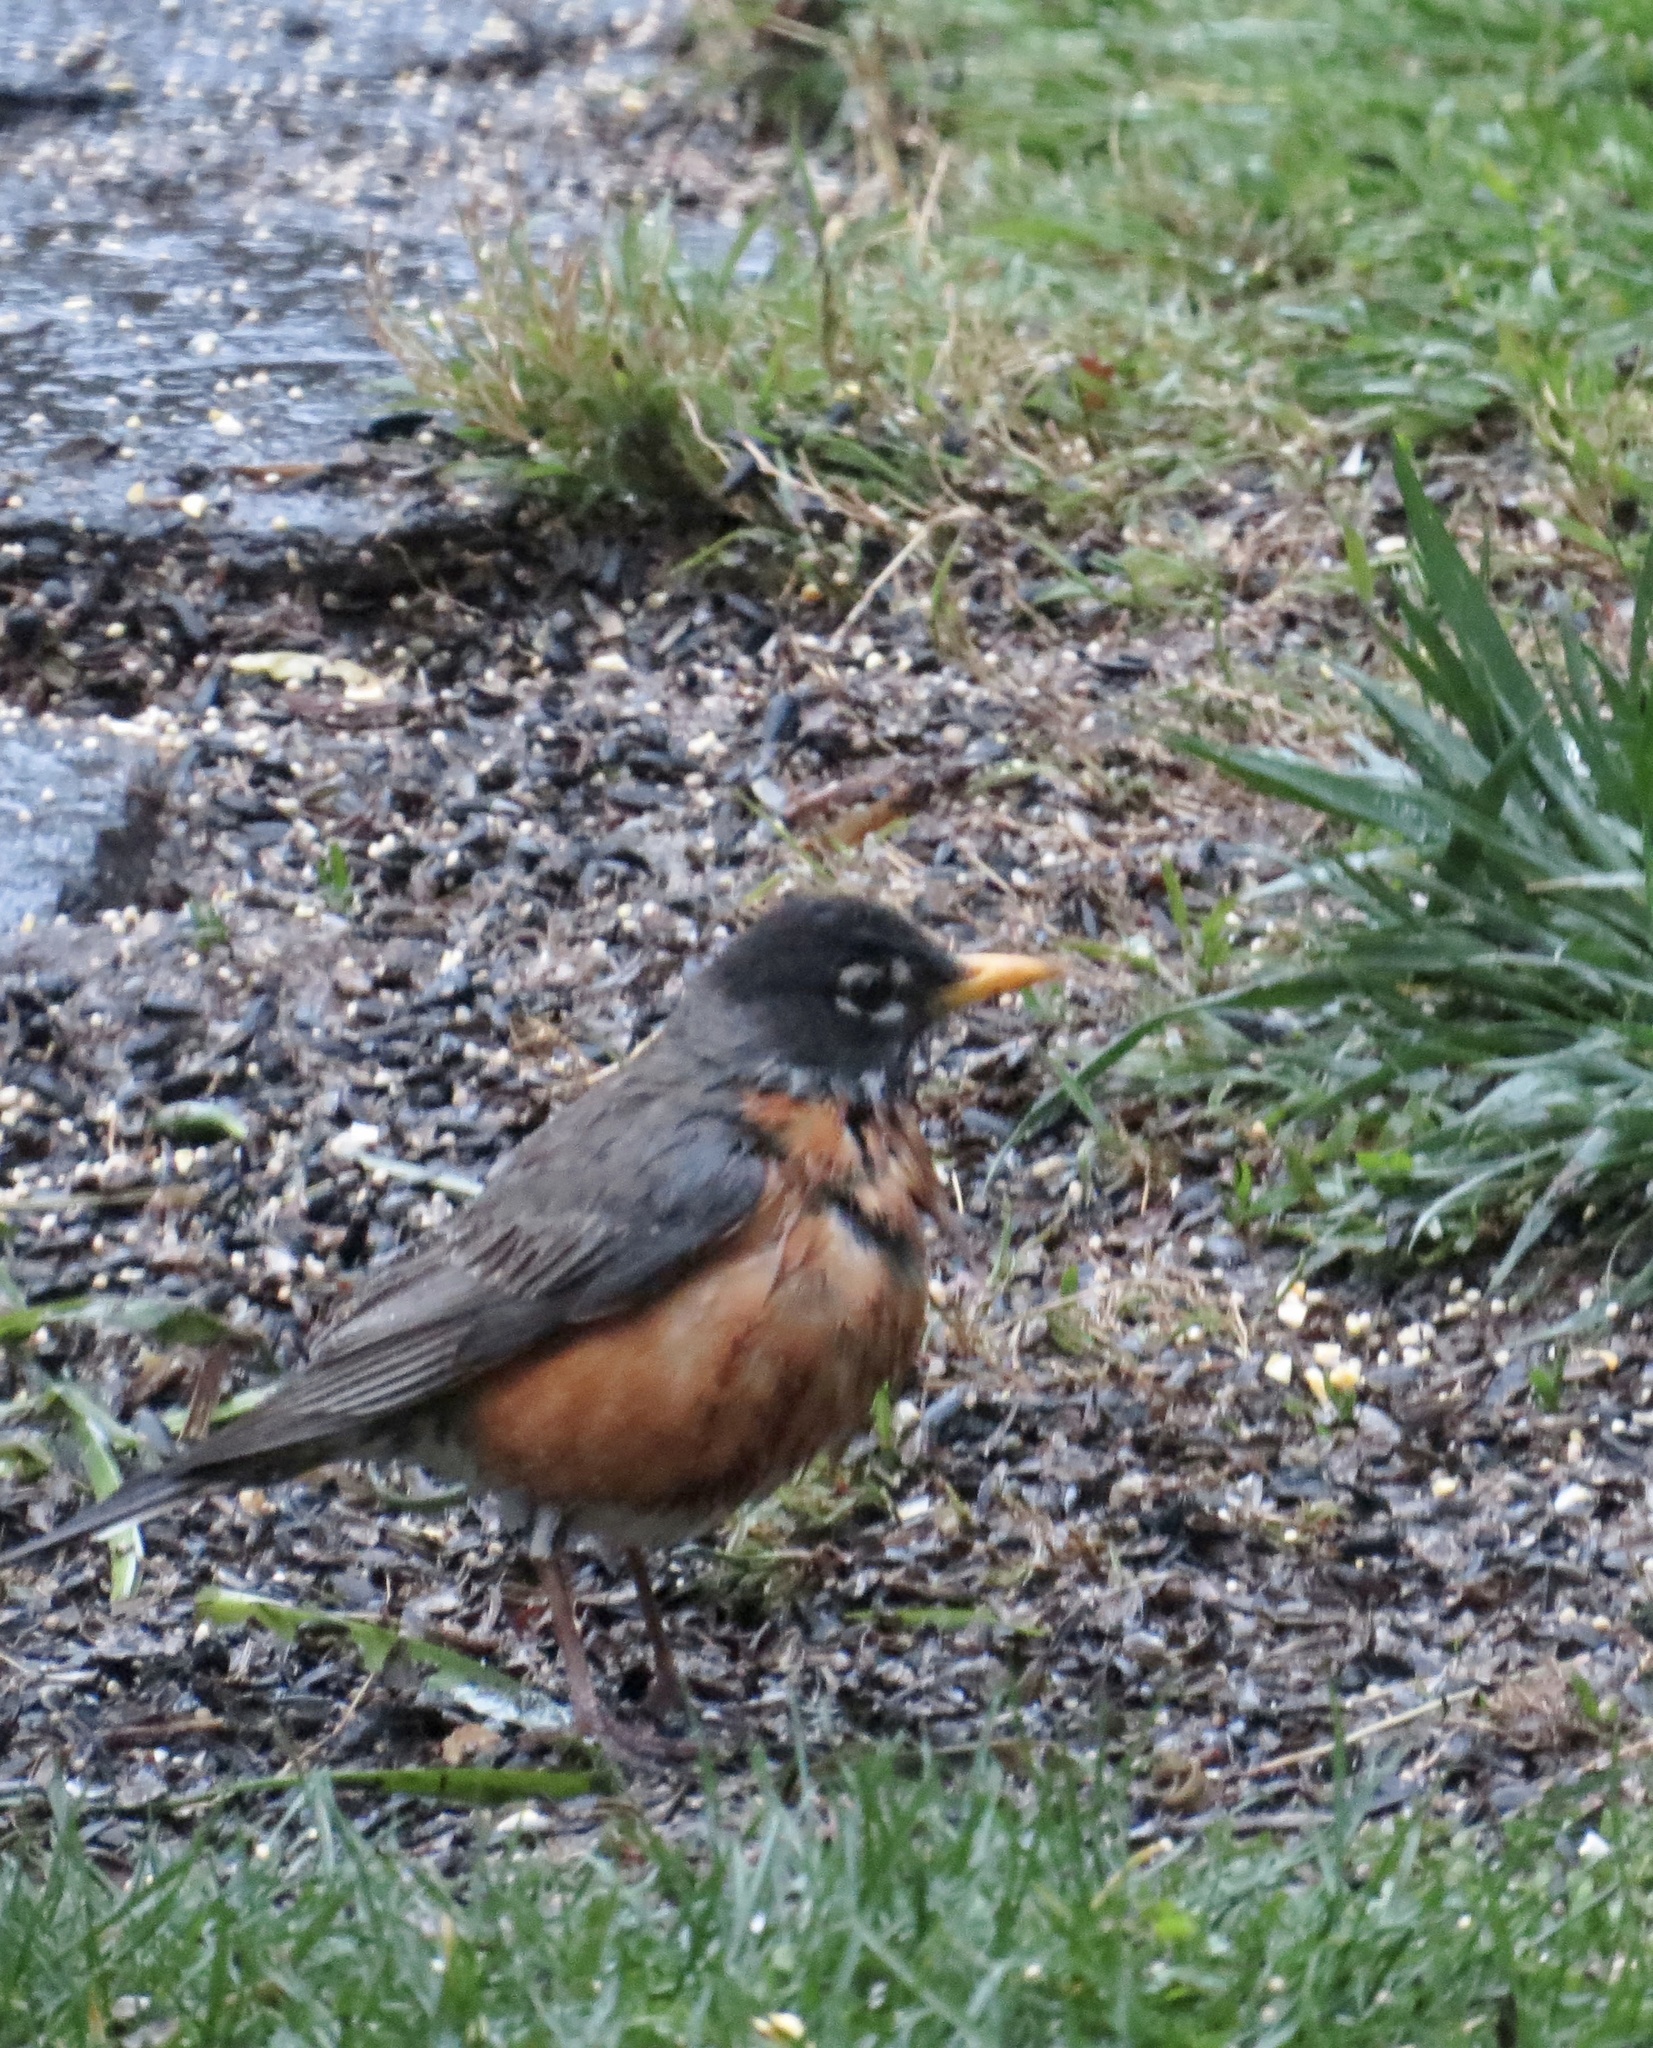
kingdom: Animalia
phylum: Chordata
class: Aves
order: Passeriformes
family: Turdidae
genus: Turdus
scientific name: Turdus migratorius
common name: American robin
